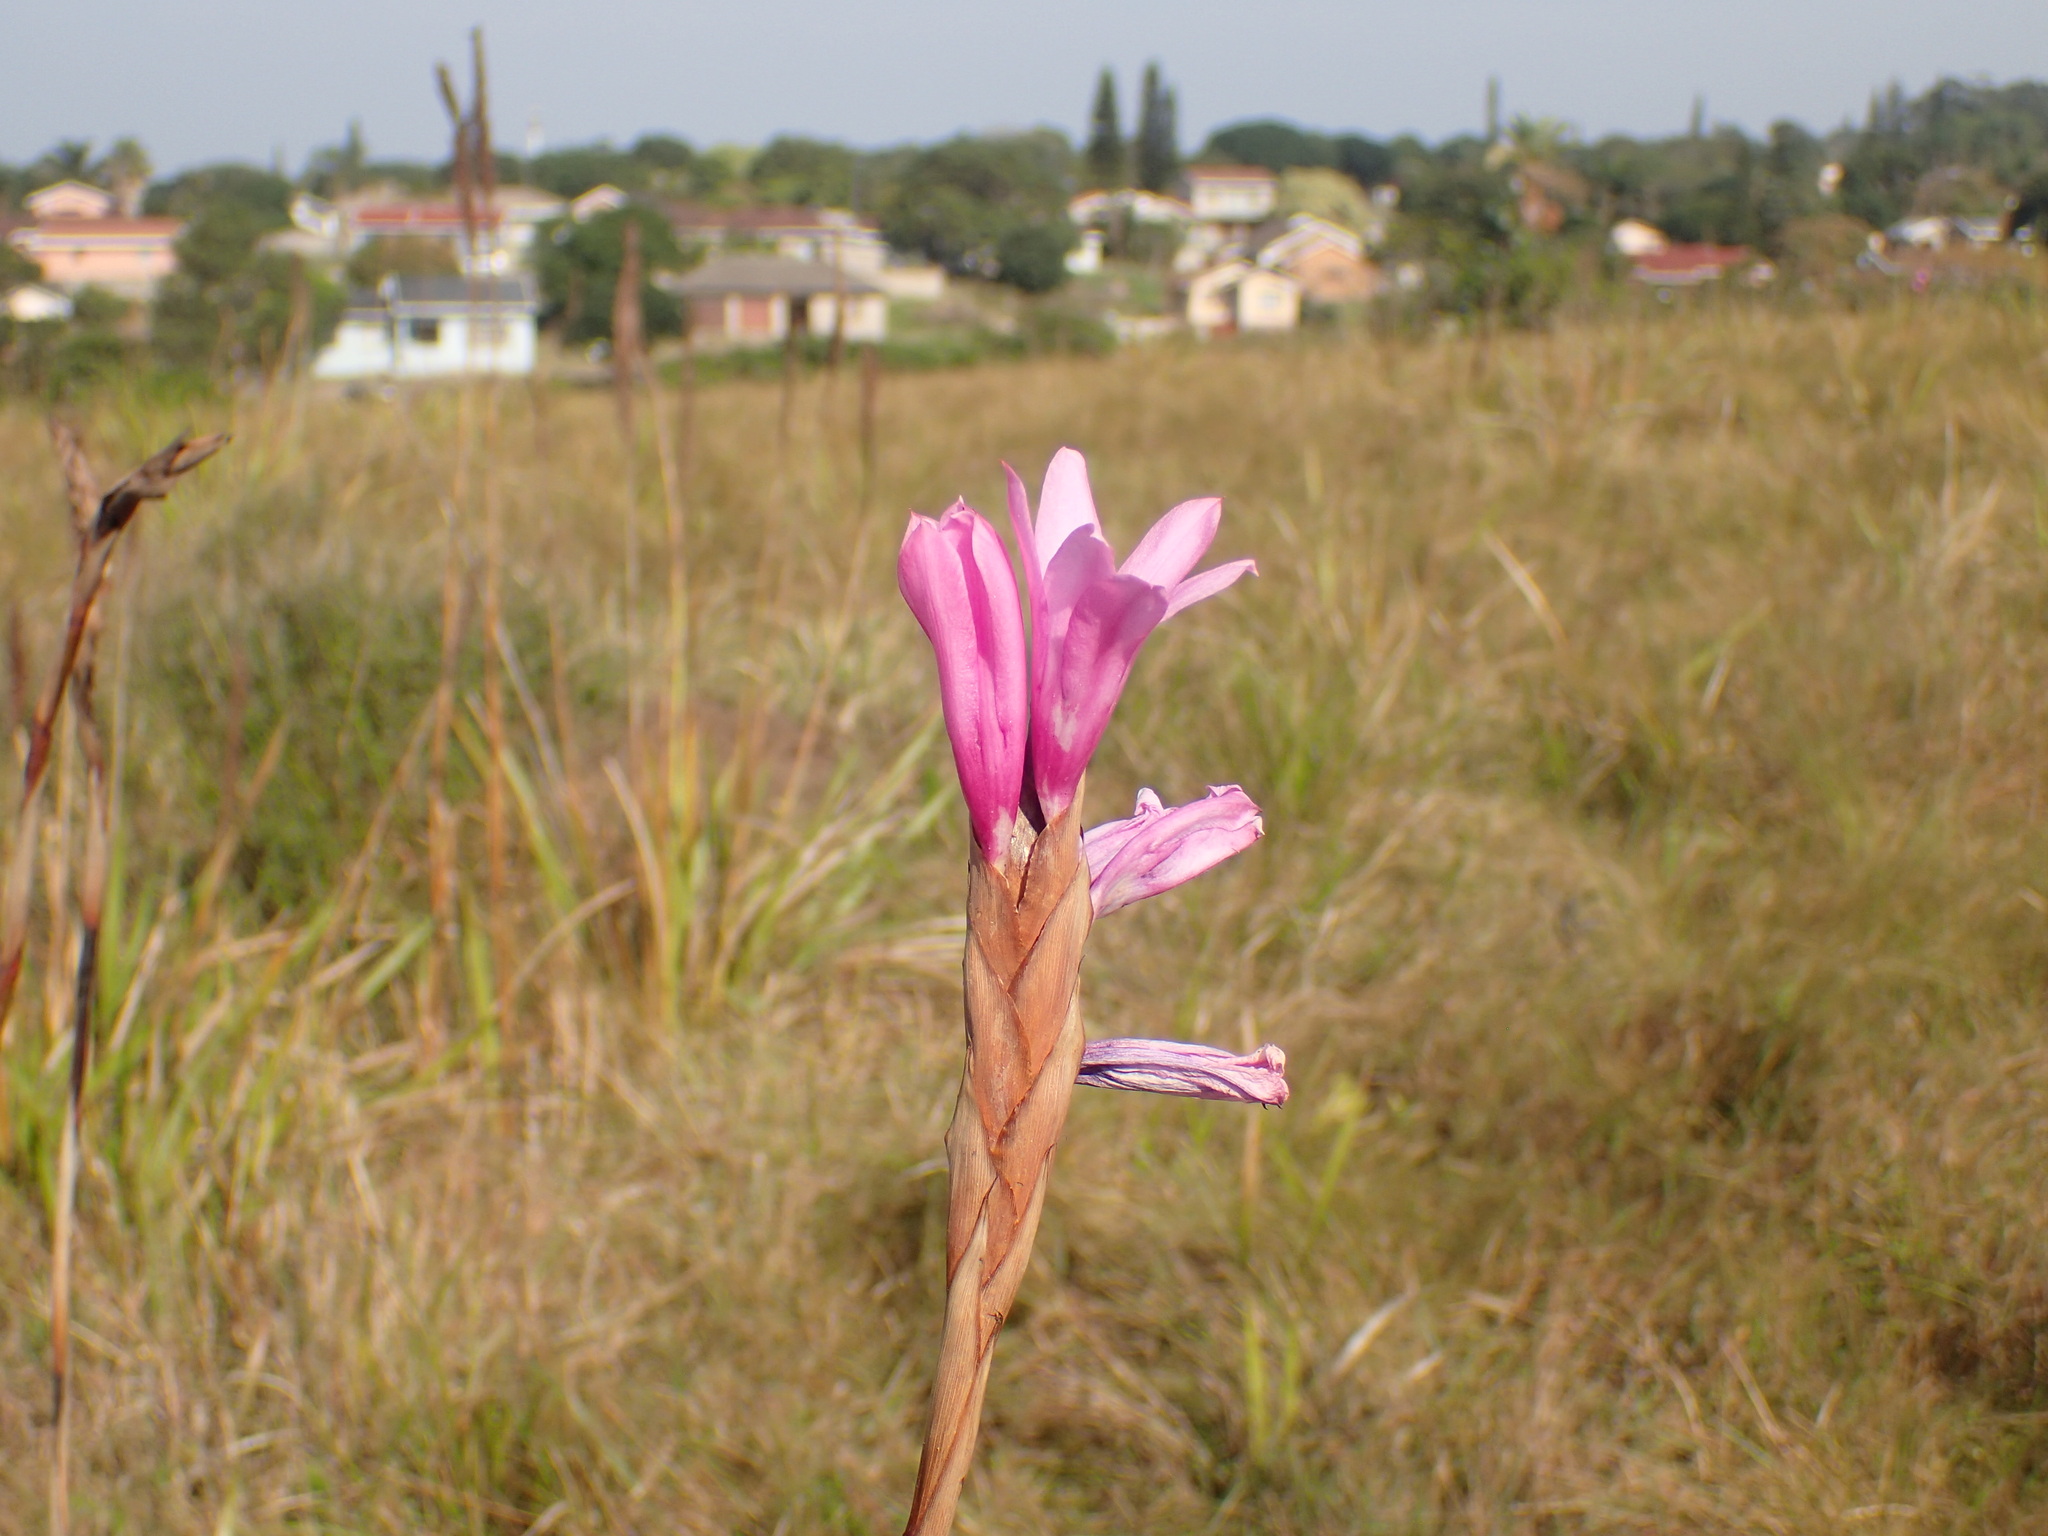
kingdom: Plantae
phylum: Tracheophyta
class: Liliopsida
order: Asparagales
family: Iridaceae
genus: Watsonia
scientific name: Watsonia densiflora
